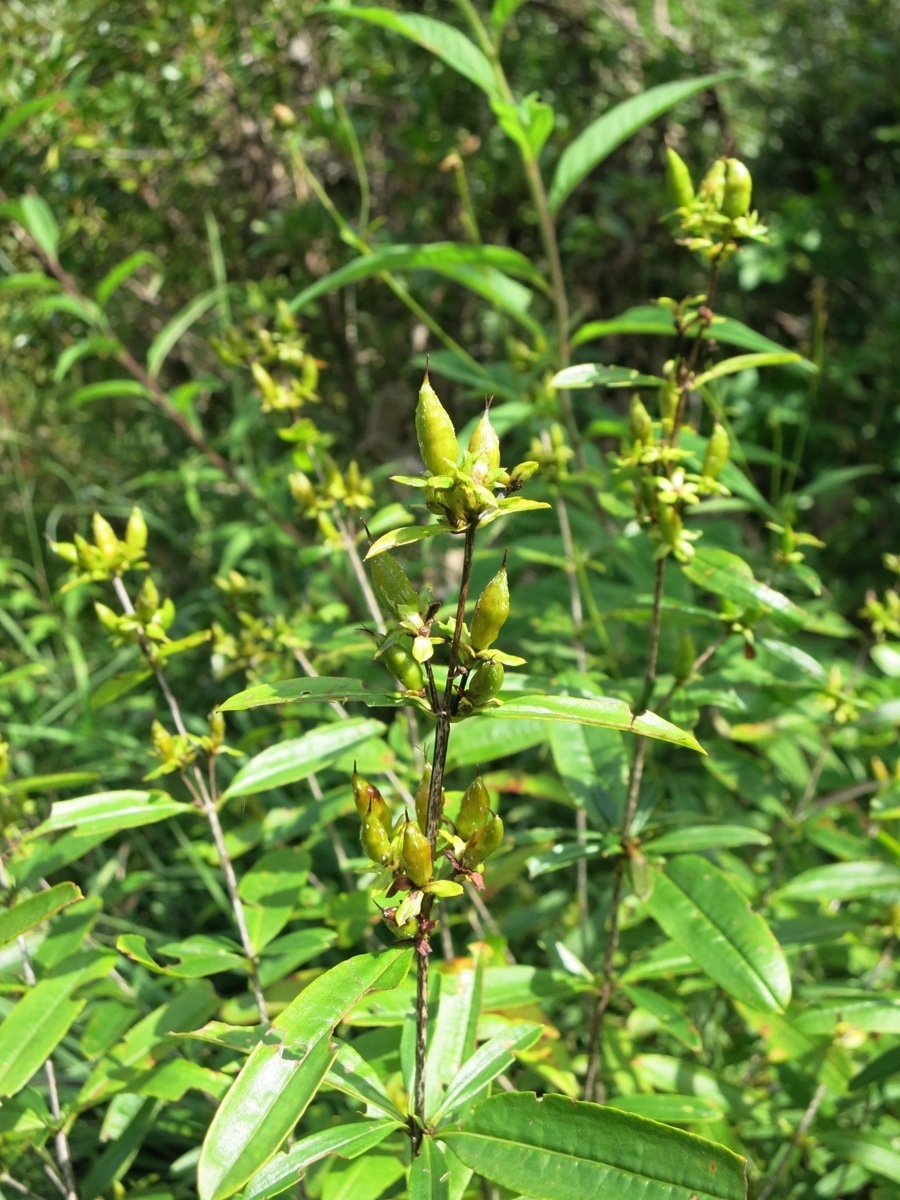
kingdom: Plantae
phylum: Tracheophyta
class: Magnoliopsida
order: Malpighiales
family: Hypericaceae
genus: Hypericum
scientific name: Hypericum prolificum
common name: Shrubby st. john's-wort
